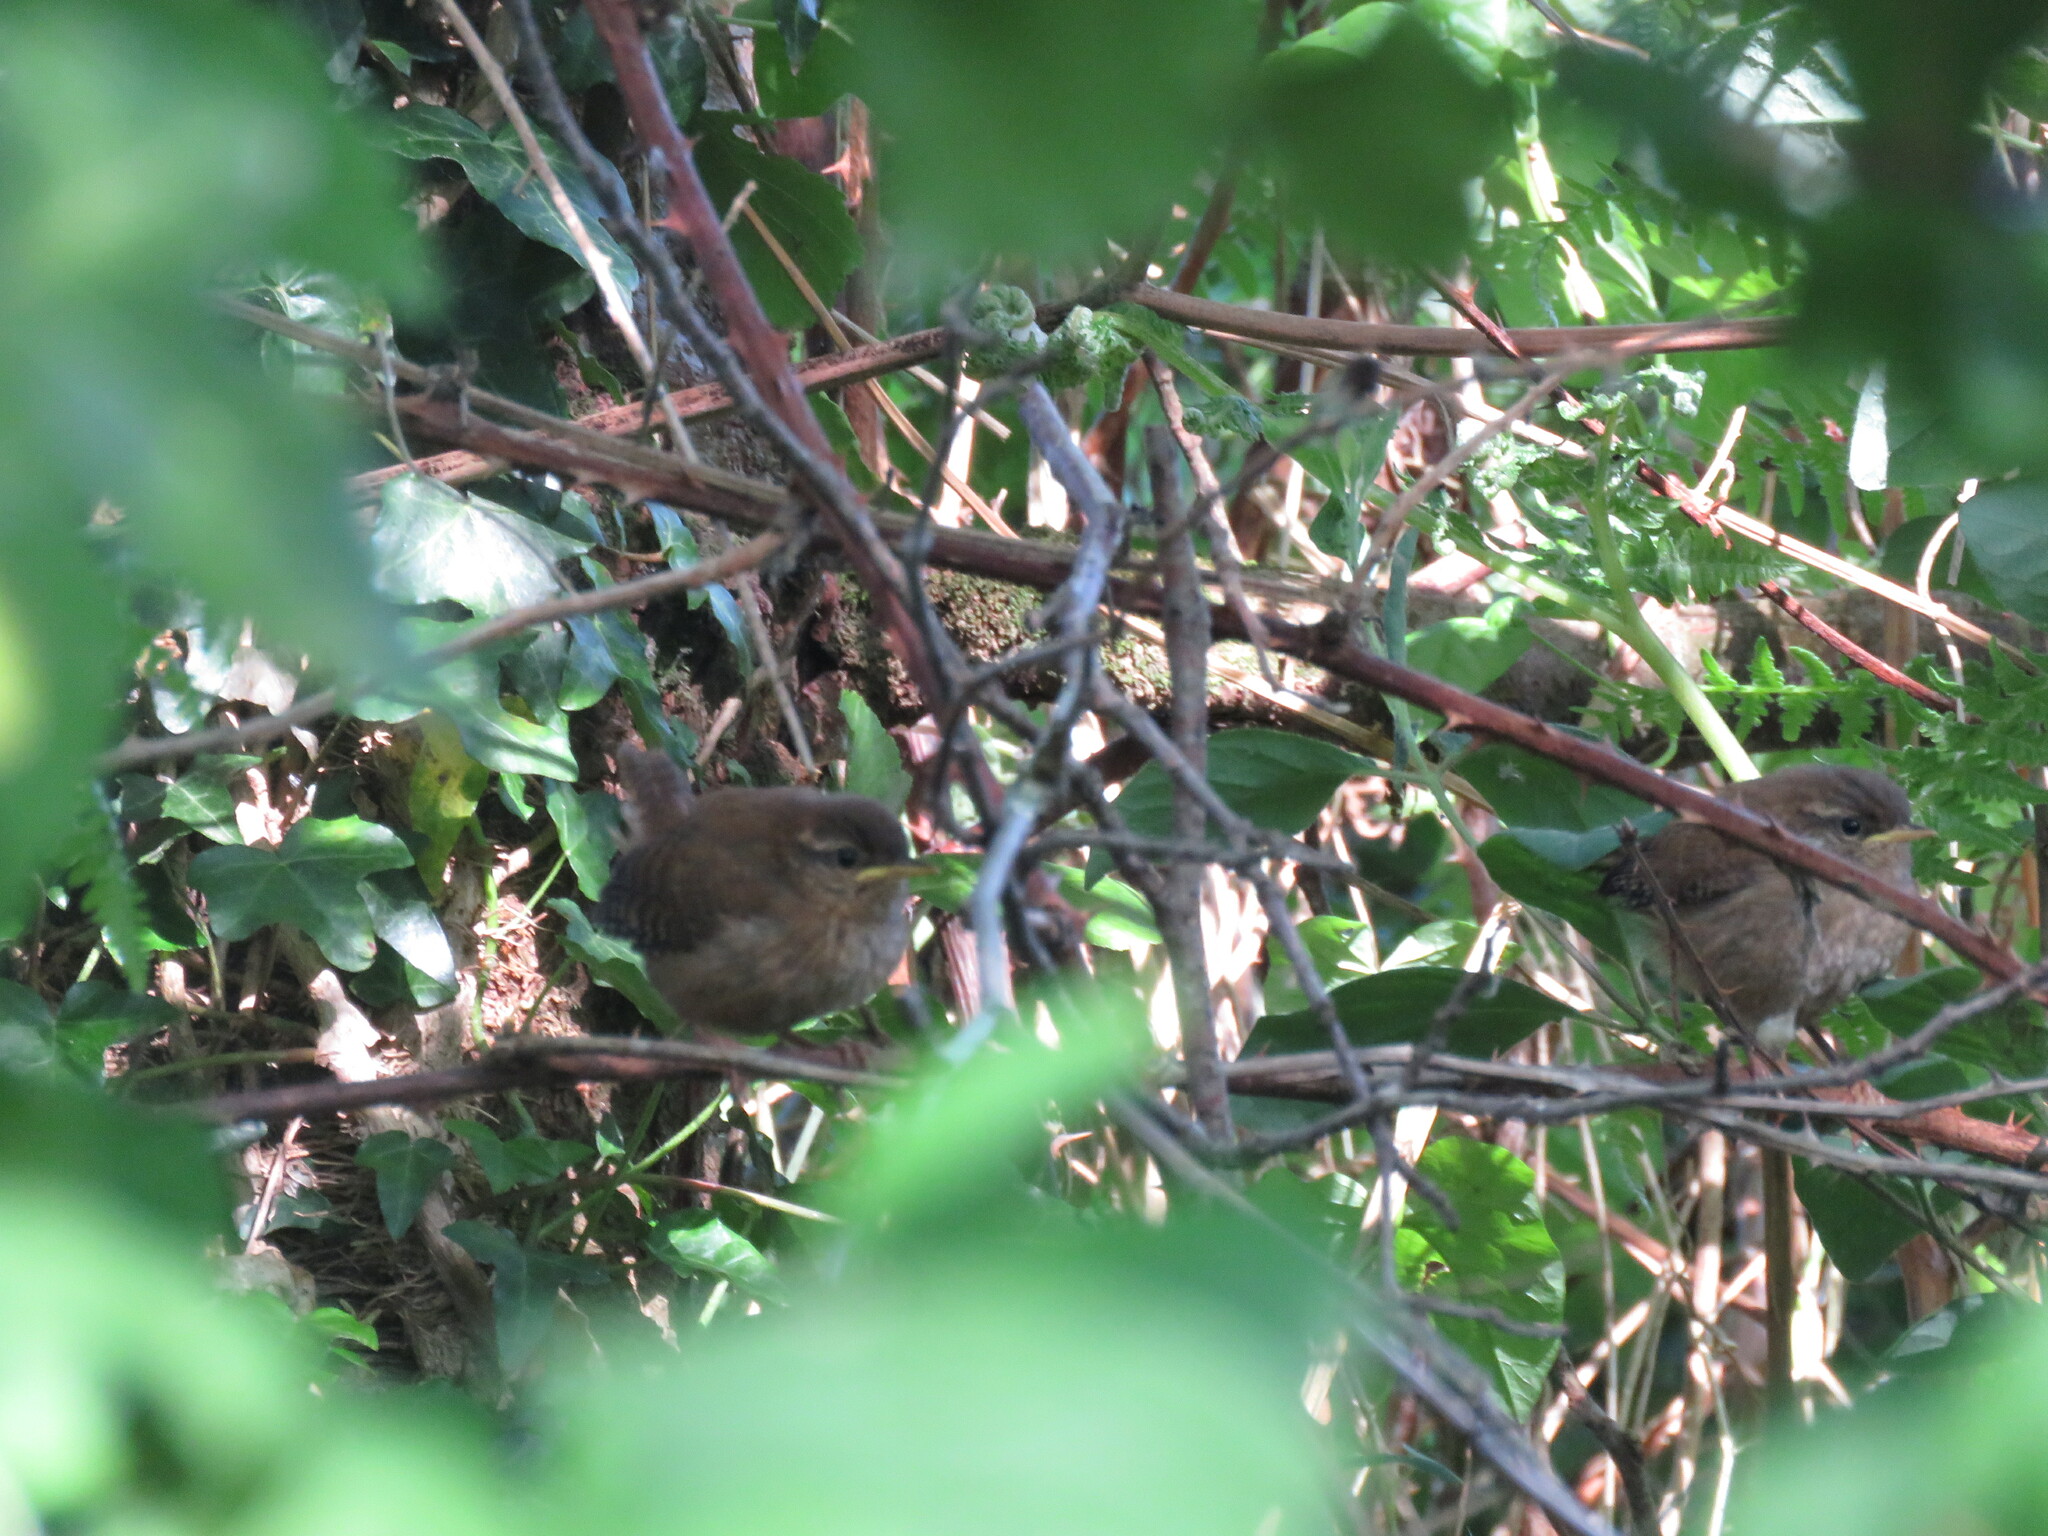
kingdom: Animalia
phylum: Chordata
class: Aves
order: Passeriformes
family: Troglodytidae
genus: Troglodytes
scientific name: Troglodytes troglodytes
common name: Eurasian wren
